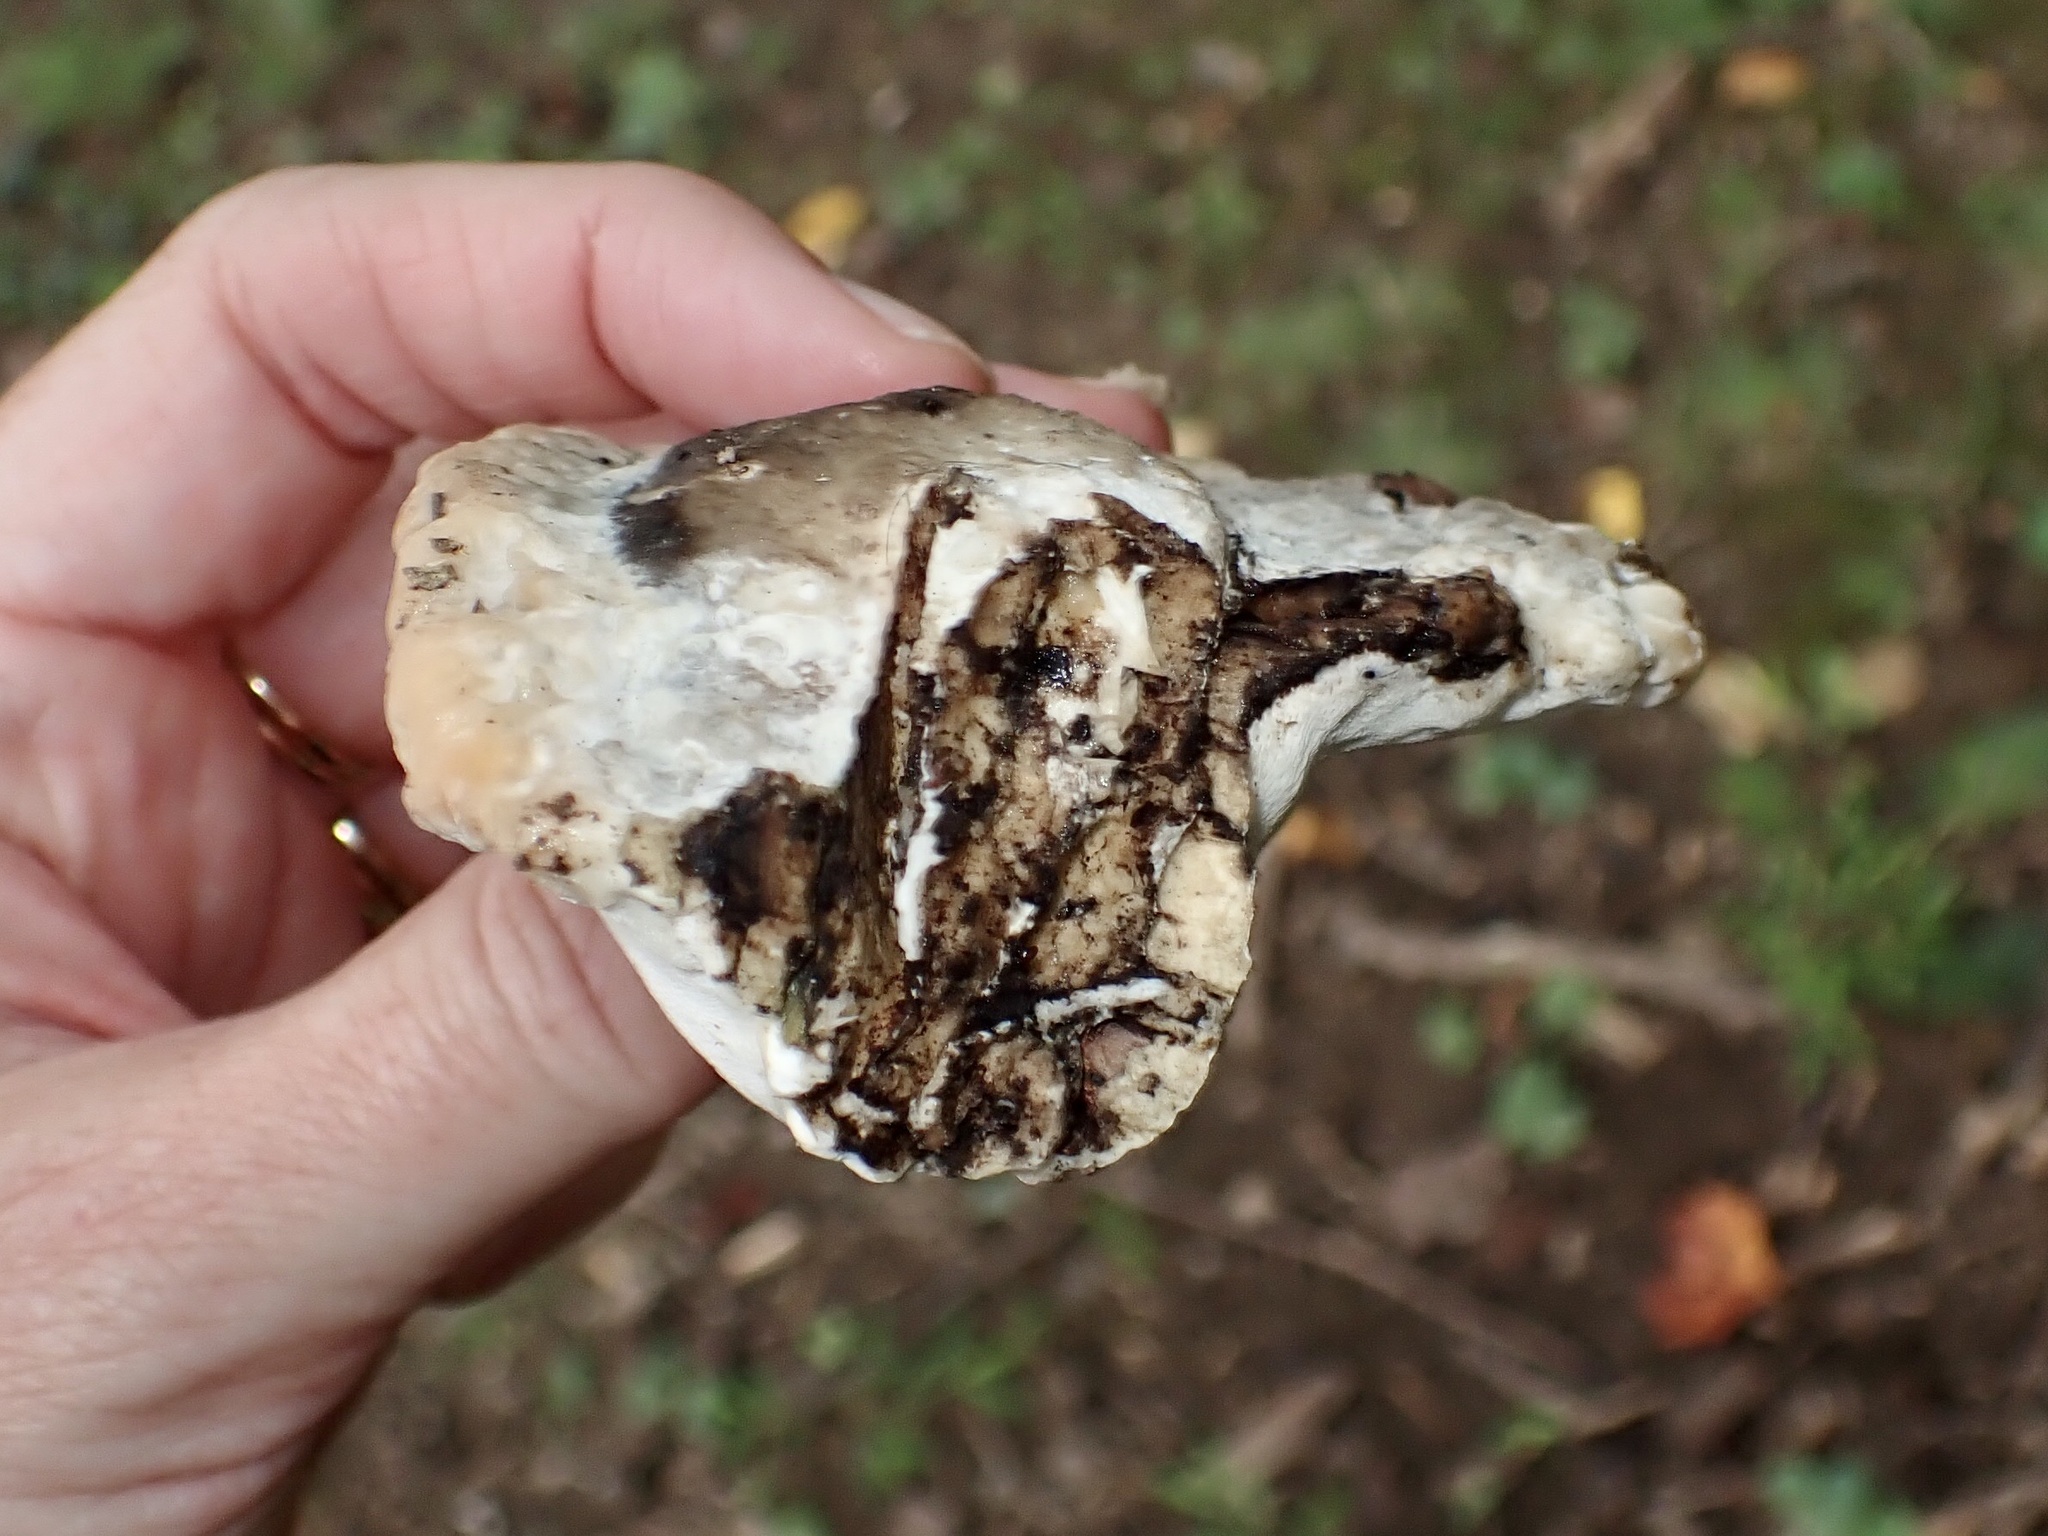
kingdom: Fungi
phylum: Basidiomycota
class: Agaricomycetes
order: Polyporales
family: Fomitopsidaceae
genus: Niveoporofomes
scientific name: Niveoporofomes spraguei
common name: Green cheese polypore
